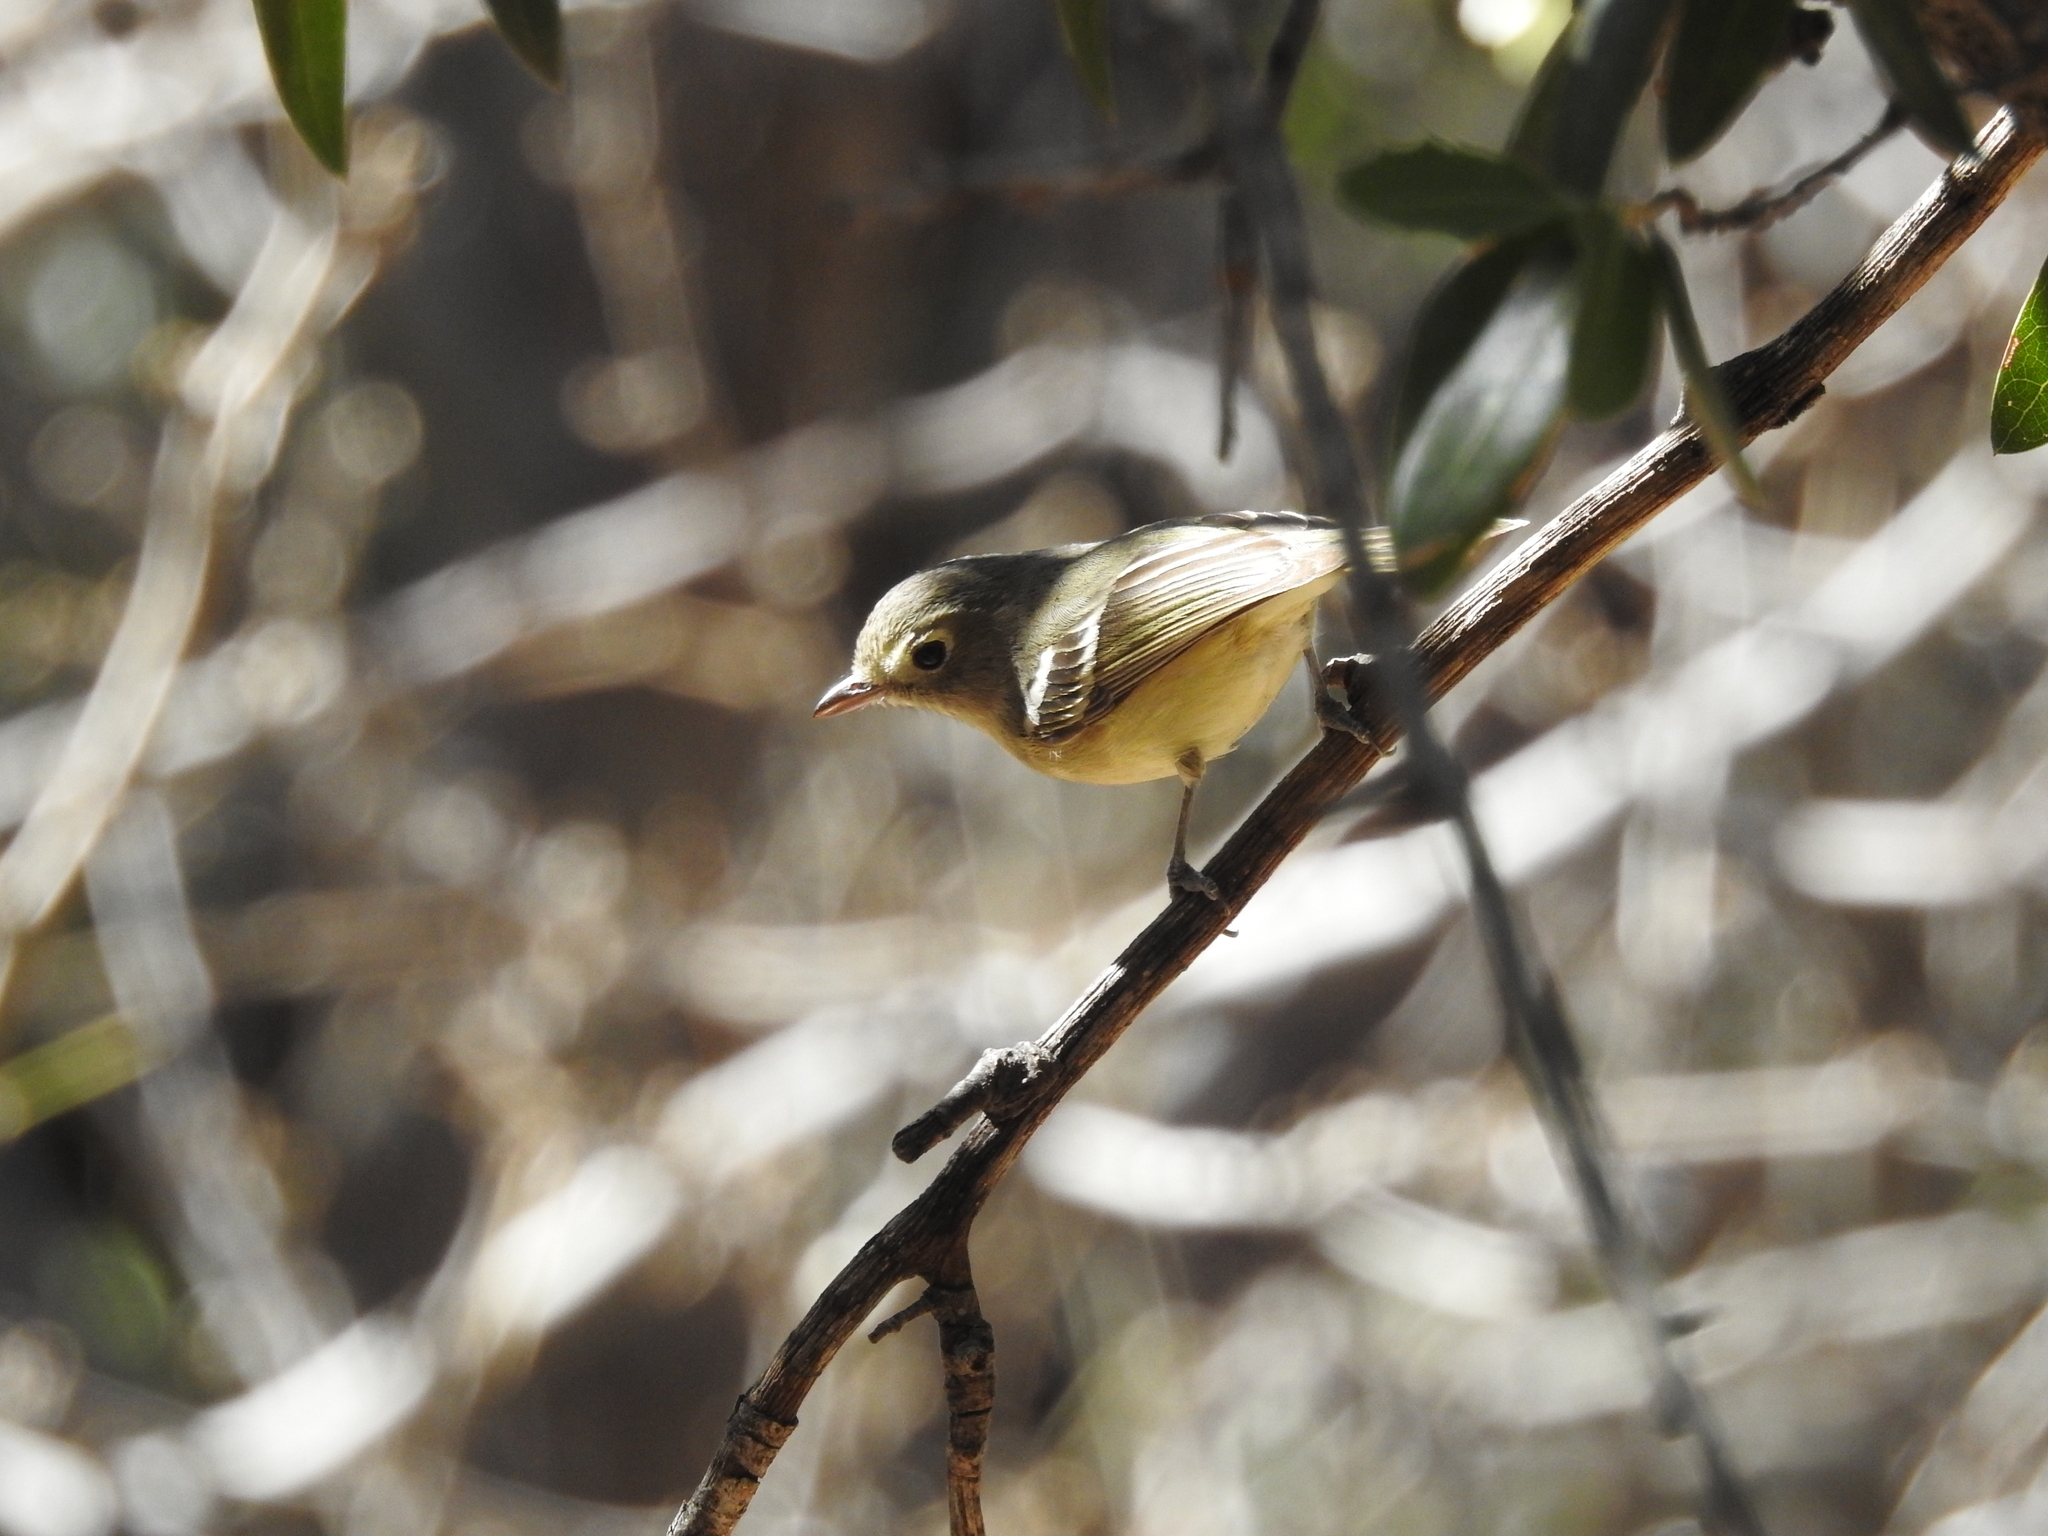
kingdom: Animalia
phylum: Chordata
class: Aves
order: Passeriformes
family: Vireonidae
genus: Vireo
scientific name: Vireo huttoni
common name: Hutton's vireo
